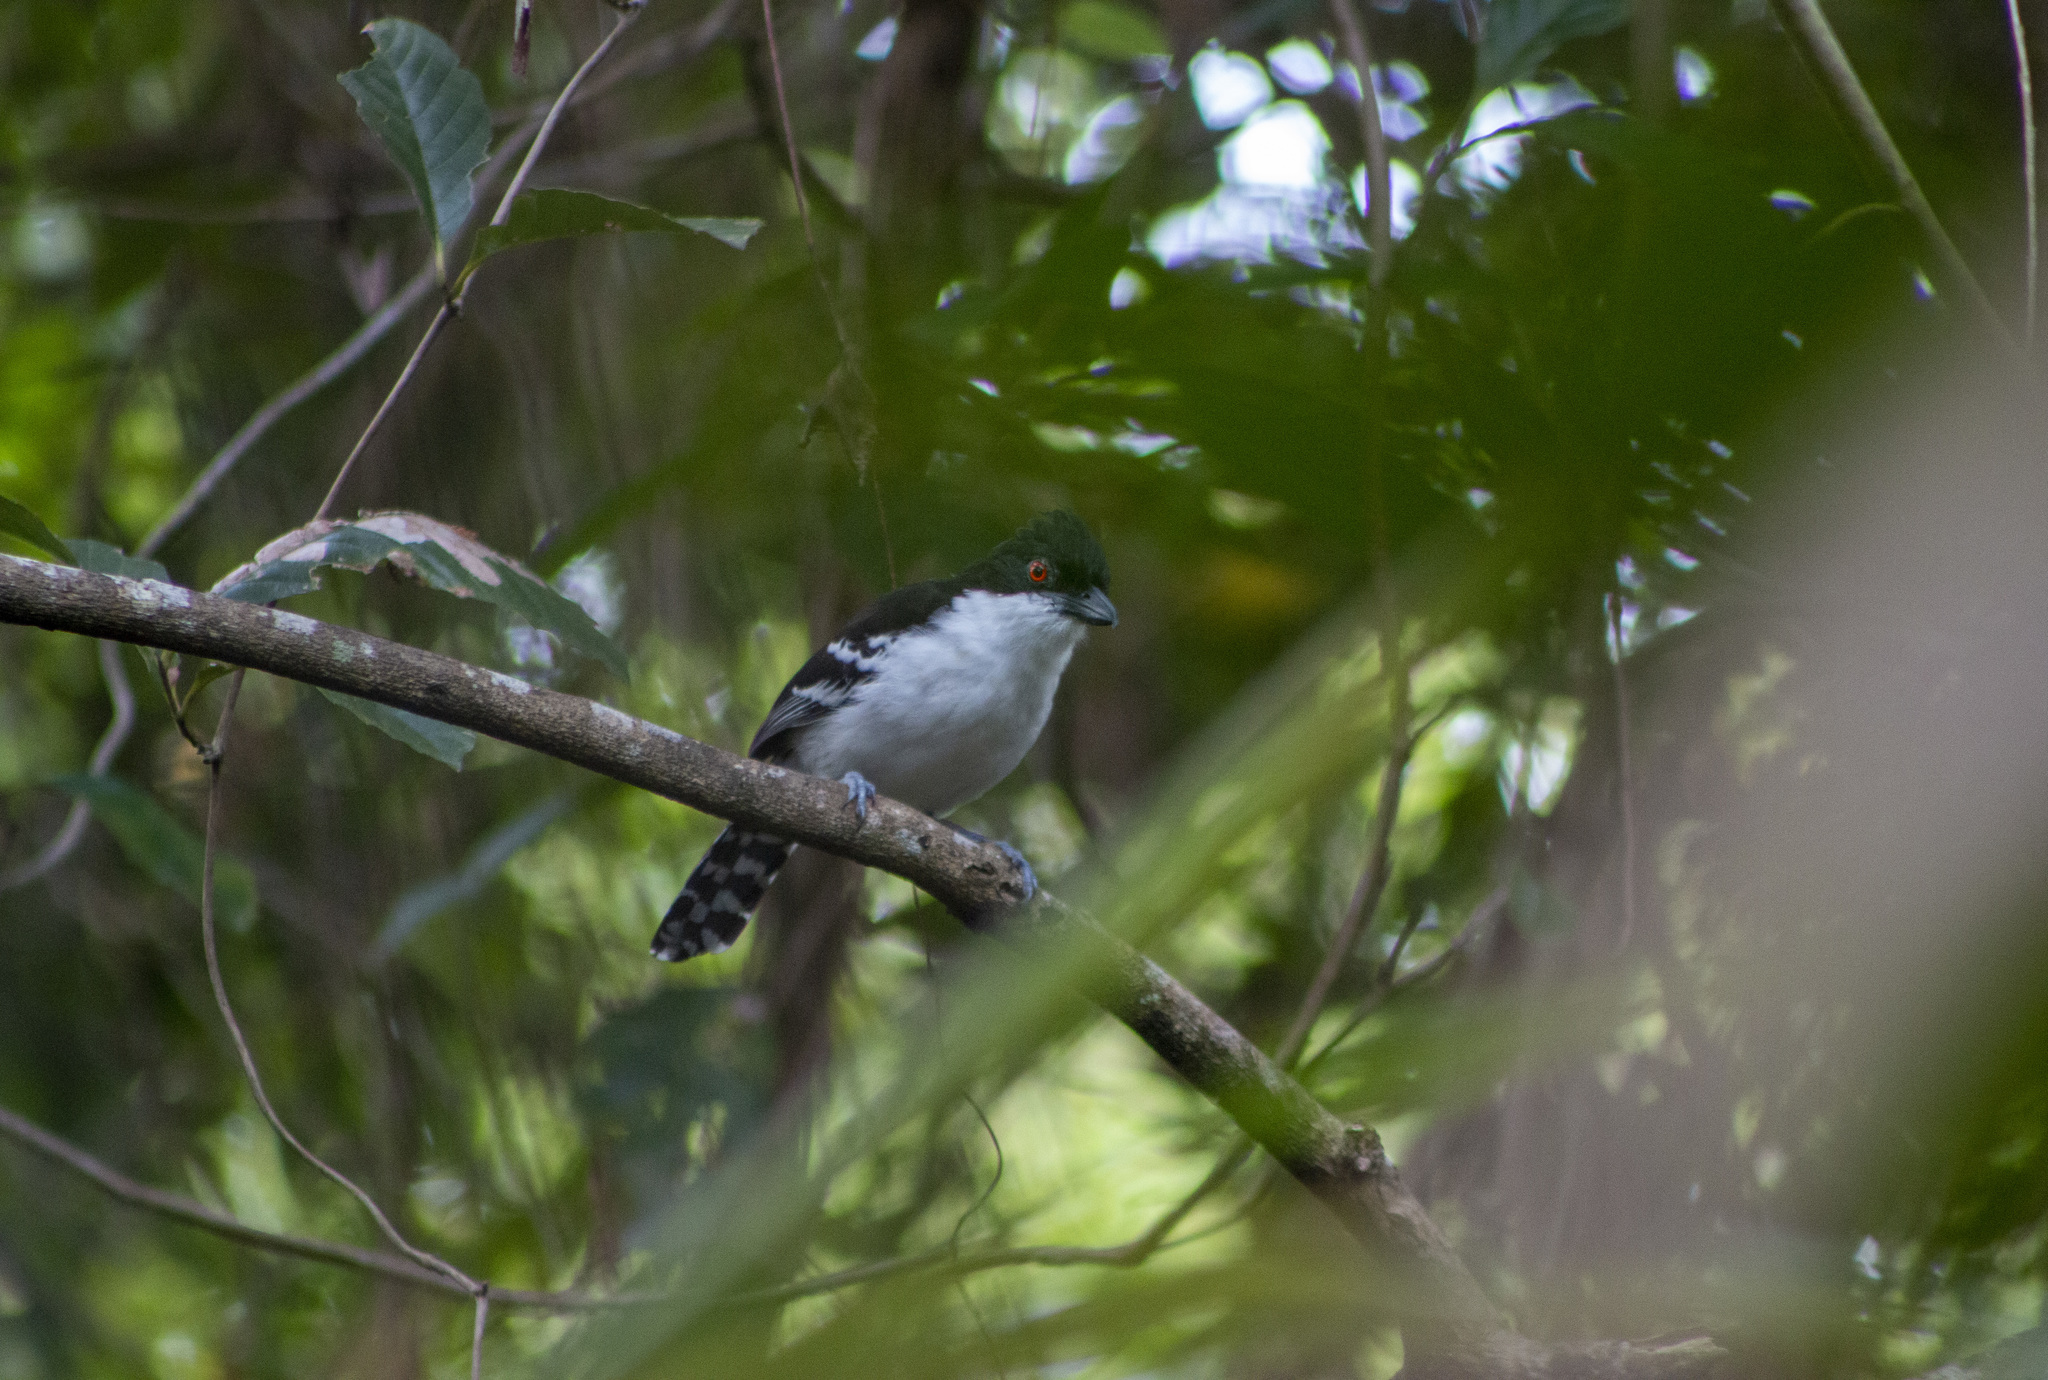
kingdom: Animalia
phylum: Chordata
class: Aves
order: Passeriformes
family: Thamnophilidae
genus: Taraba
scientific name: Taraba major
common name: Great antshrike
